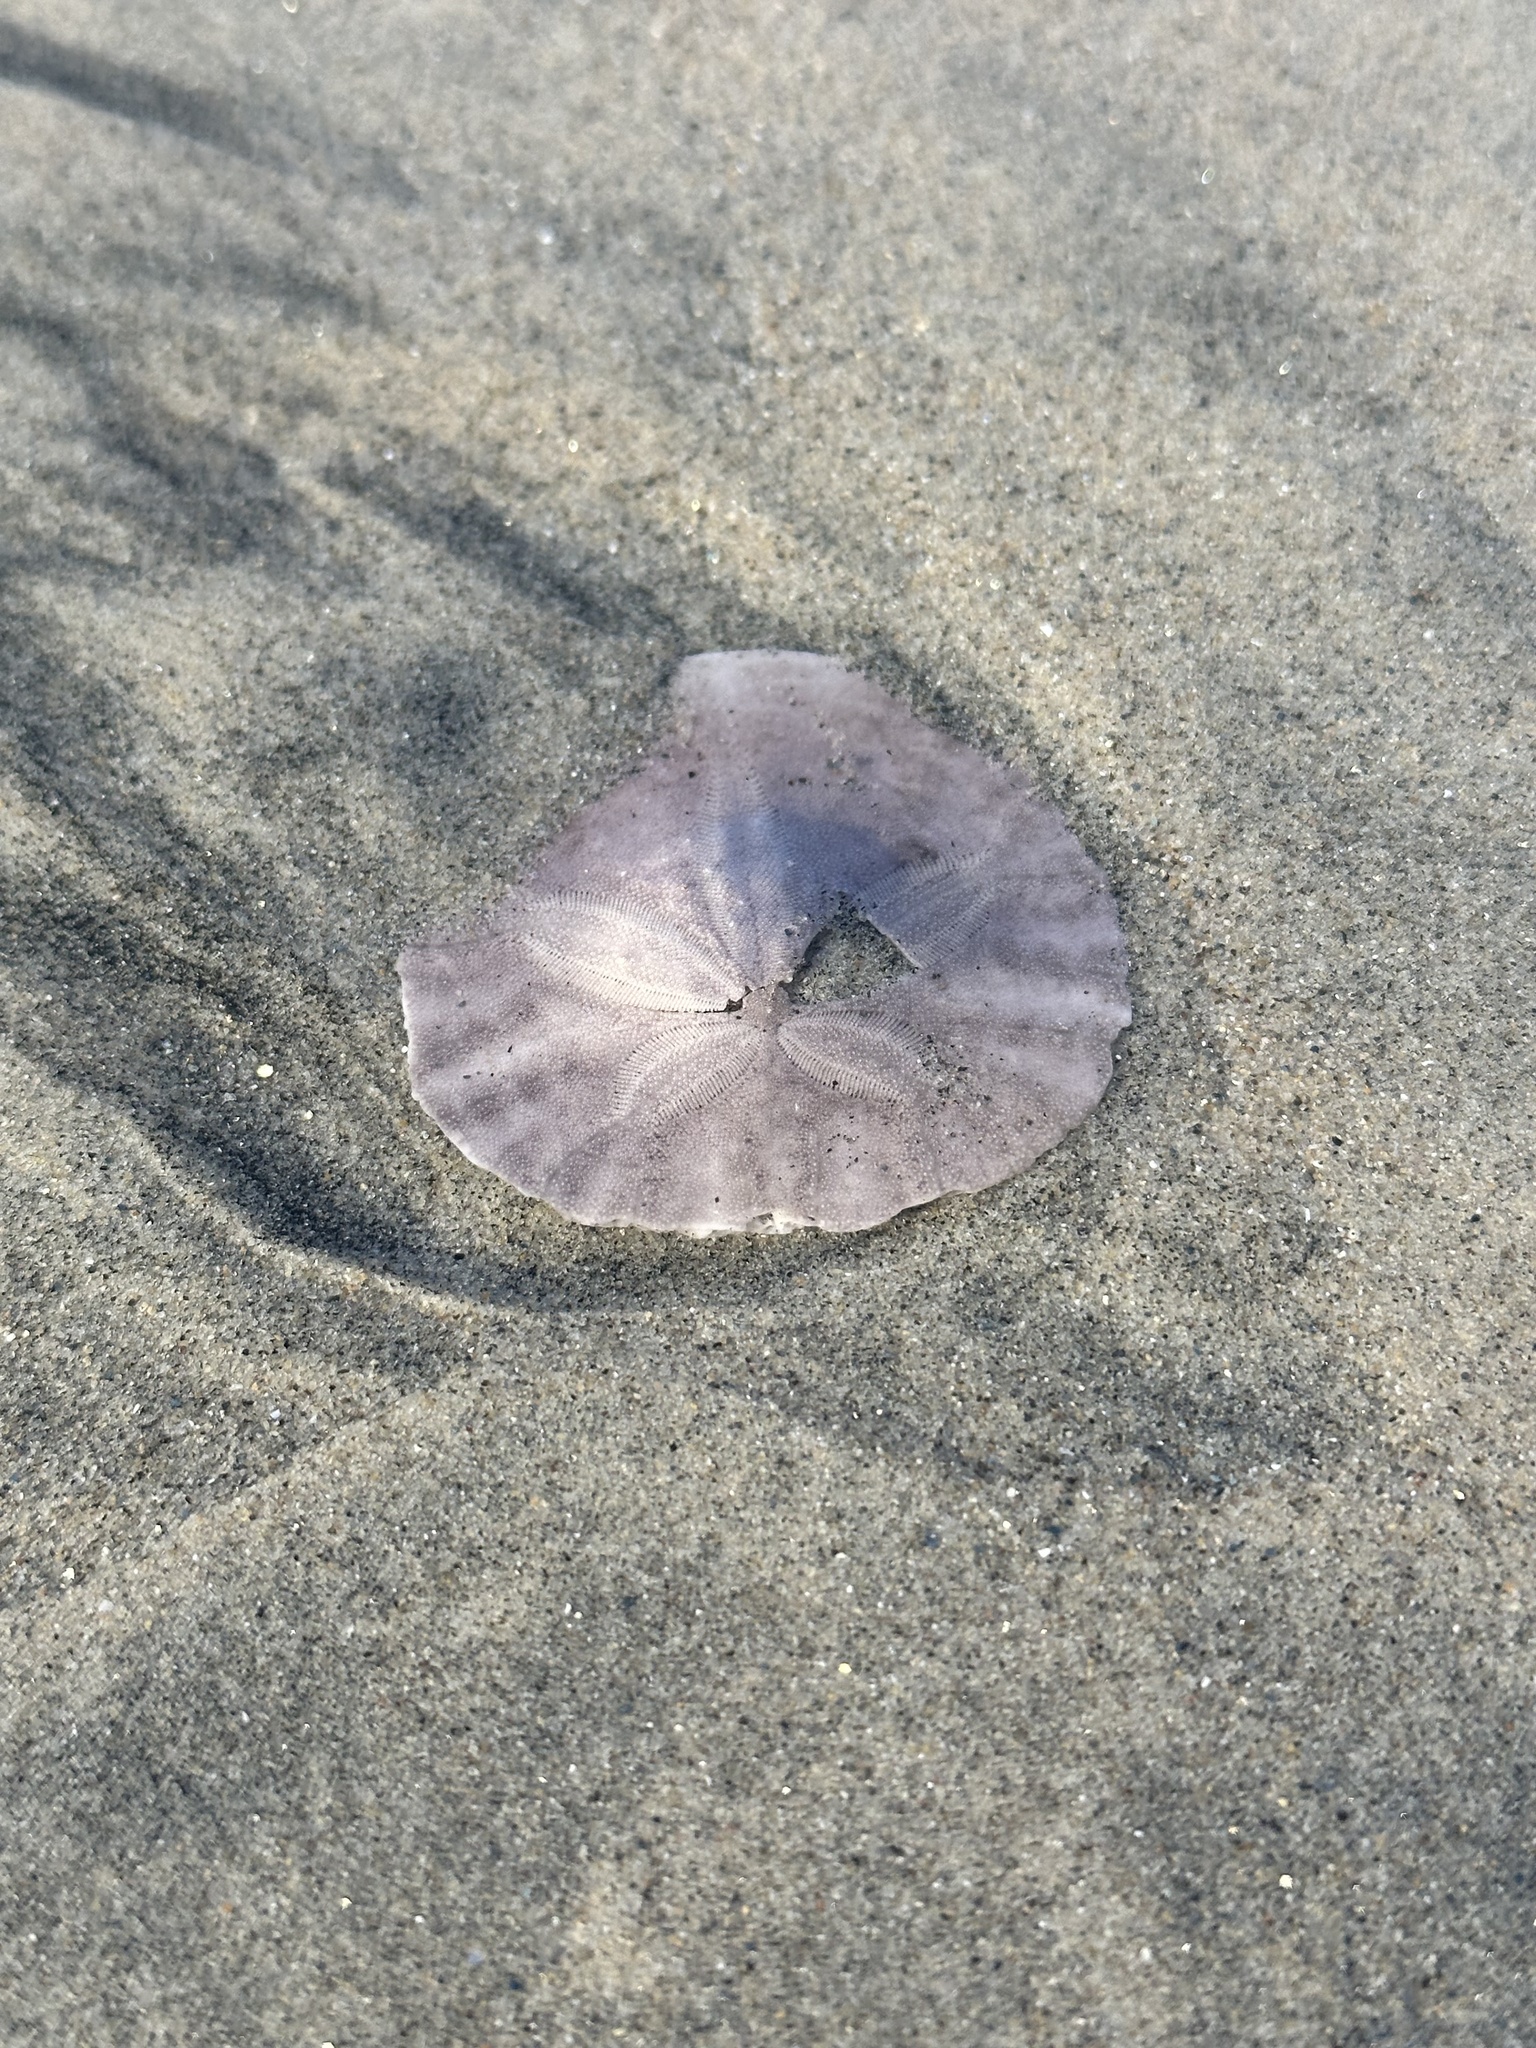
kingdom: Animalia
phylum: Echinodermata
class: Echinoidea
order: Echinolampadacea
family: Dendrasteridae
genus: Dendraster
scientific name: Dendraster excentricus
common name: Eccentric sand dollar sea urchin
